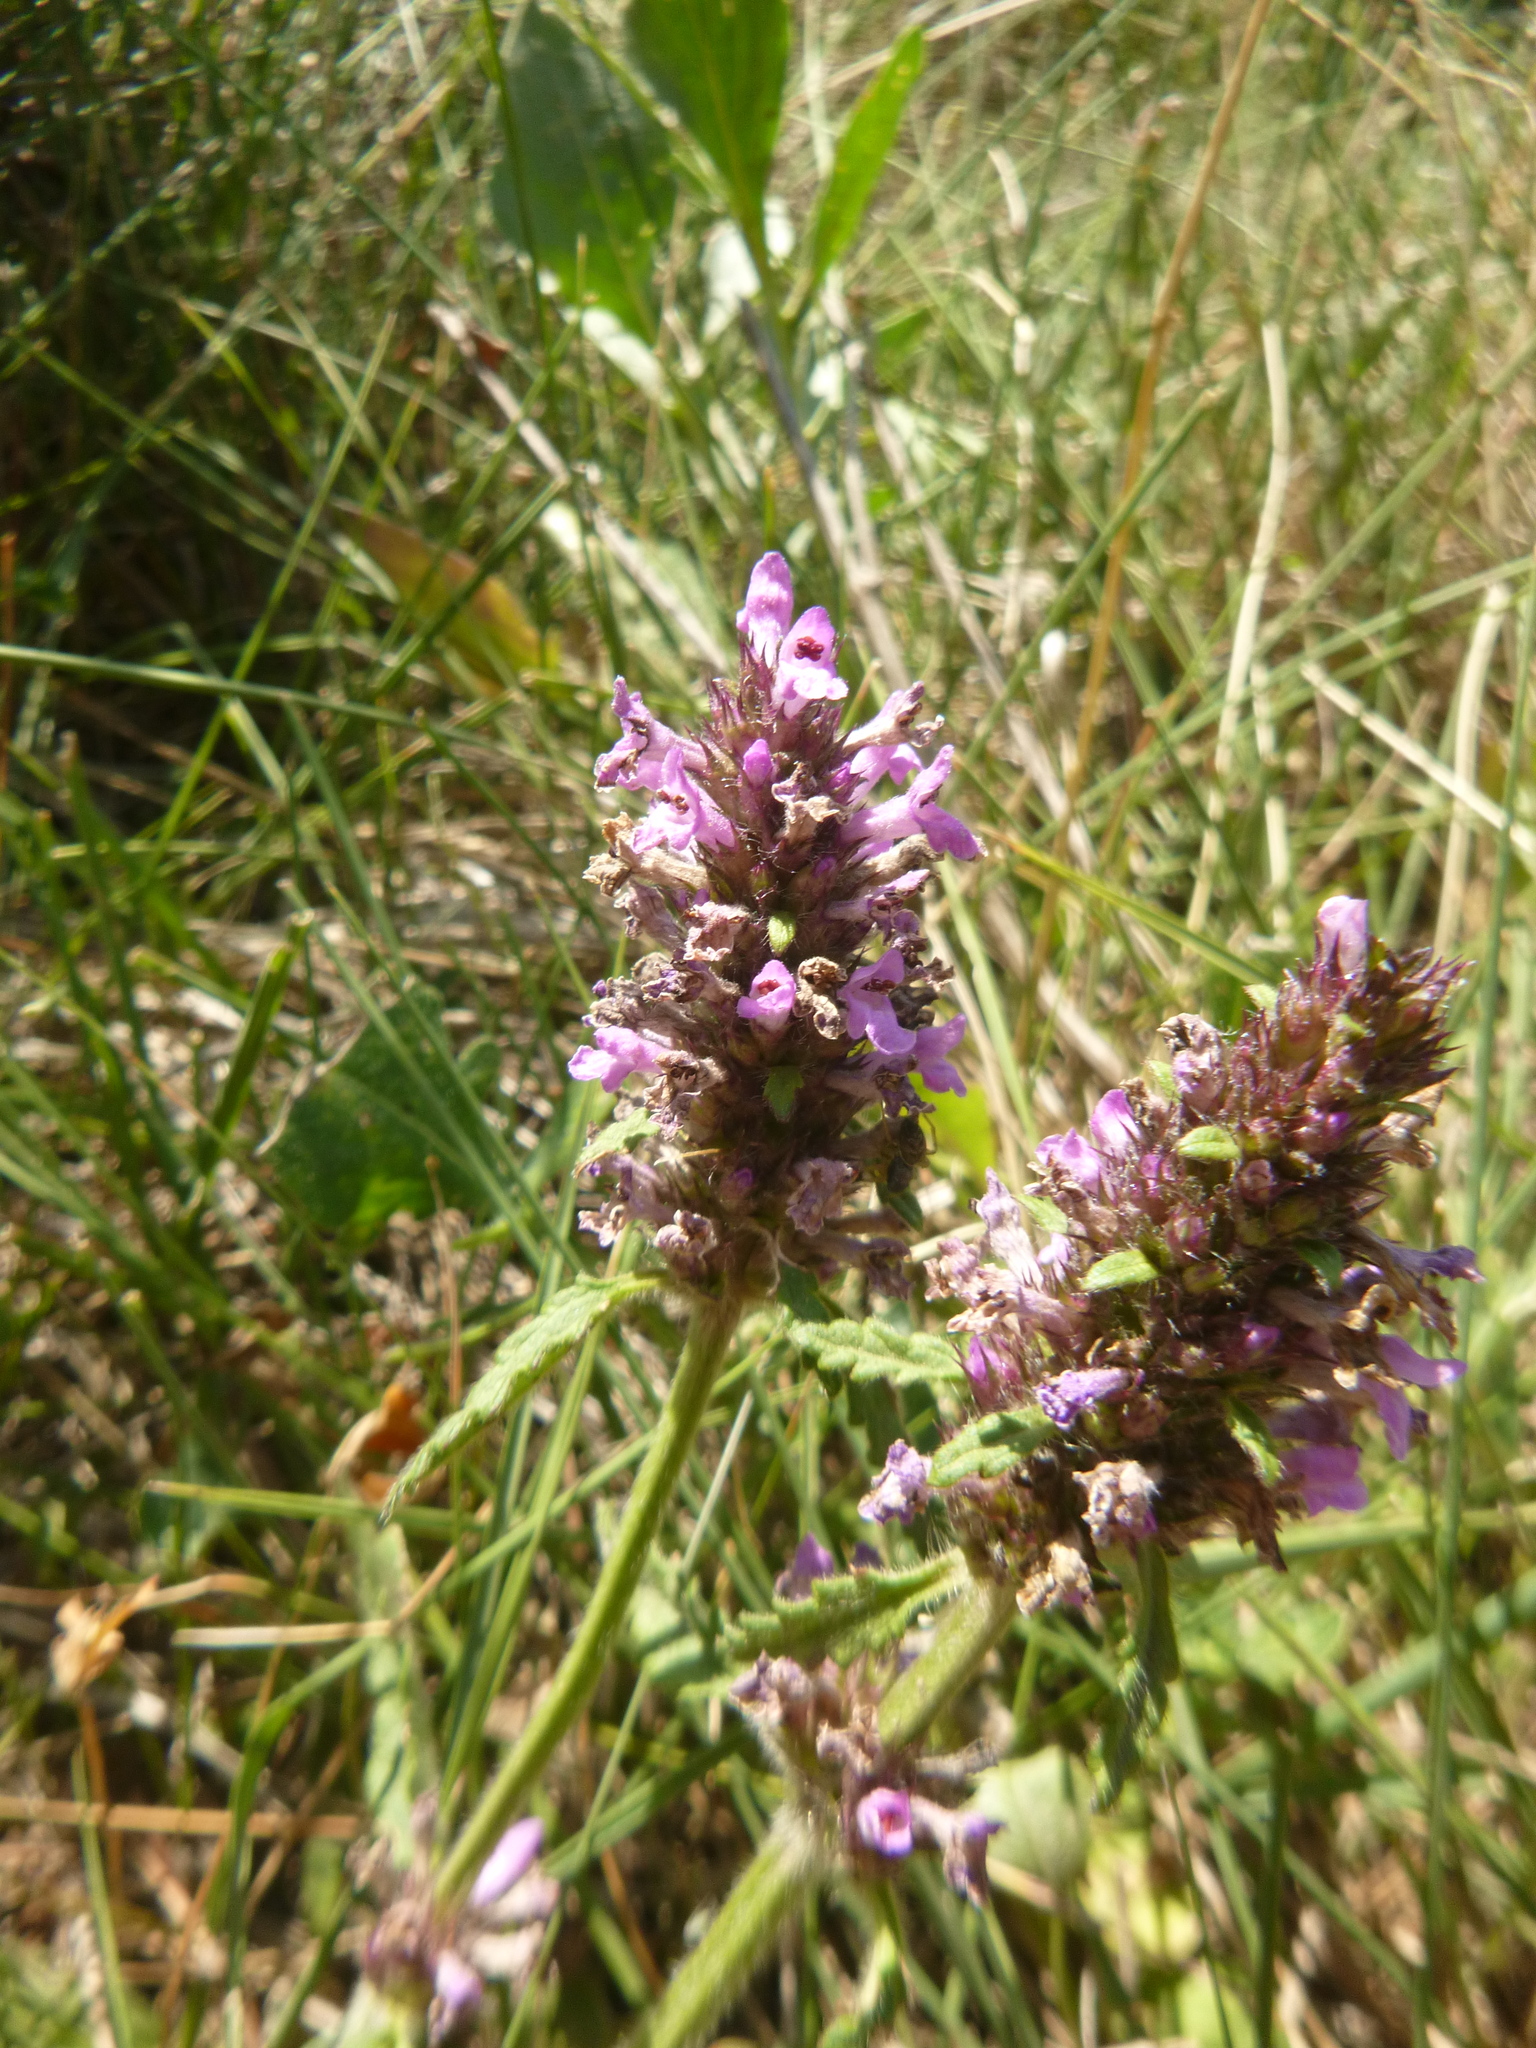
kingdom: Plantae
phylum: Tracheophyta
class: Magnoliopsida
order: Lamiales
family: Lamiaceae
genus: Betonica
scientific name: Betonica officinalis
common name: Bishop's-wort
